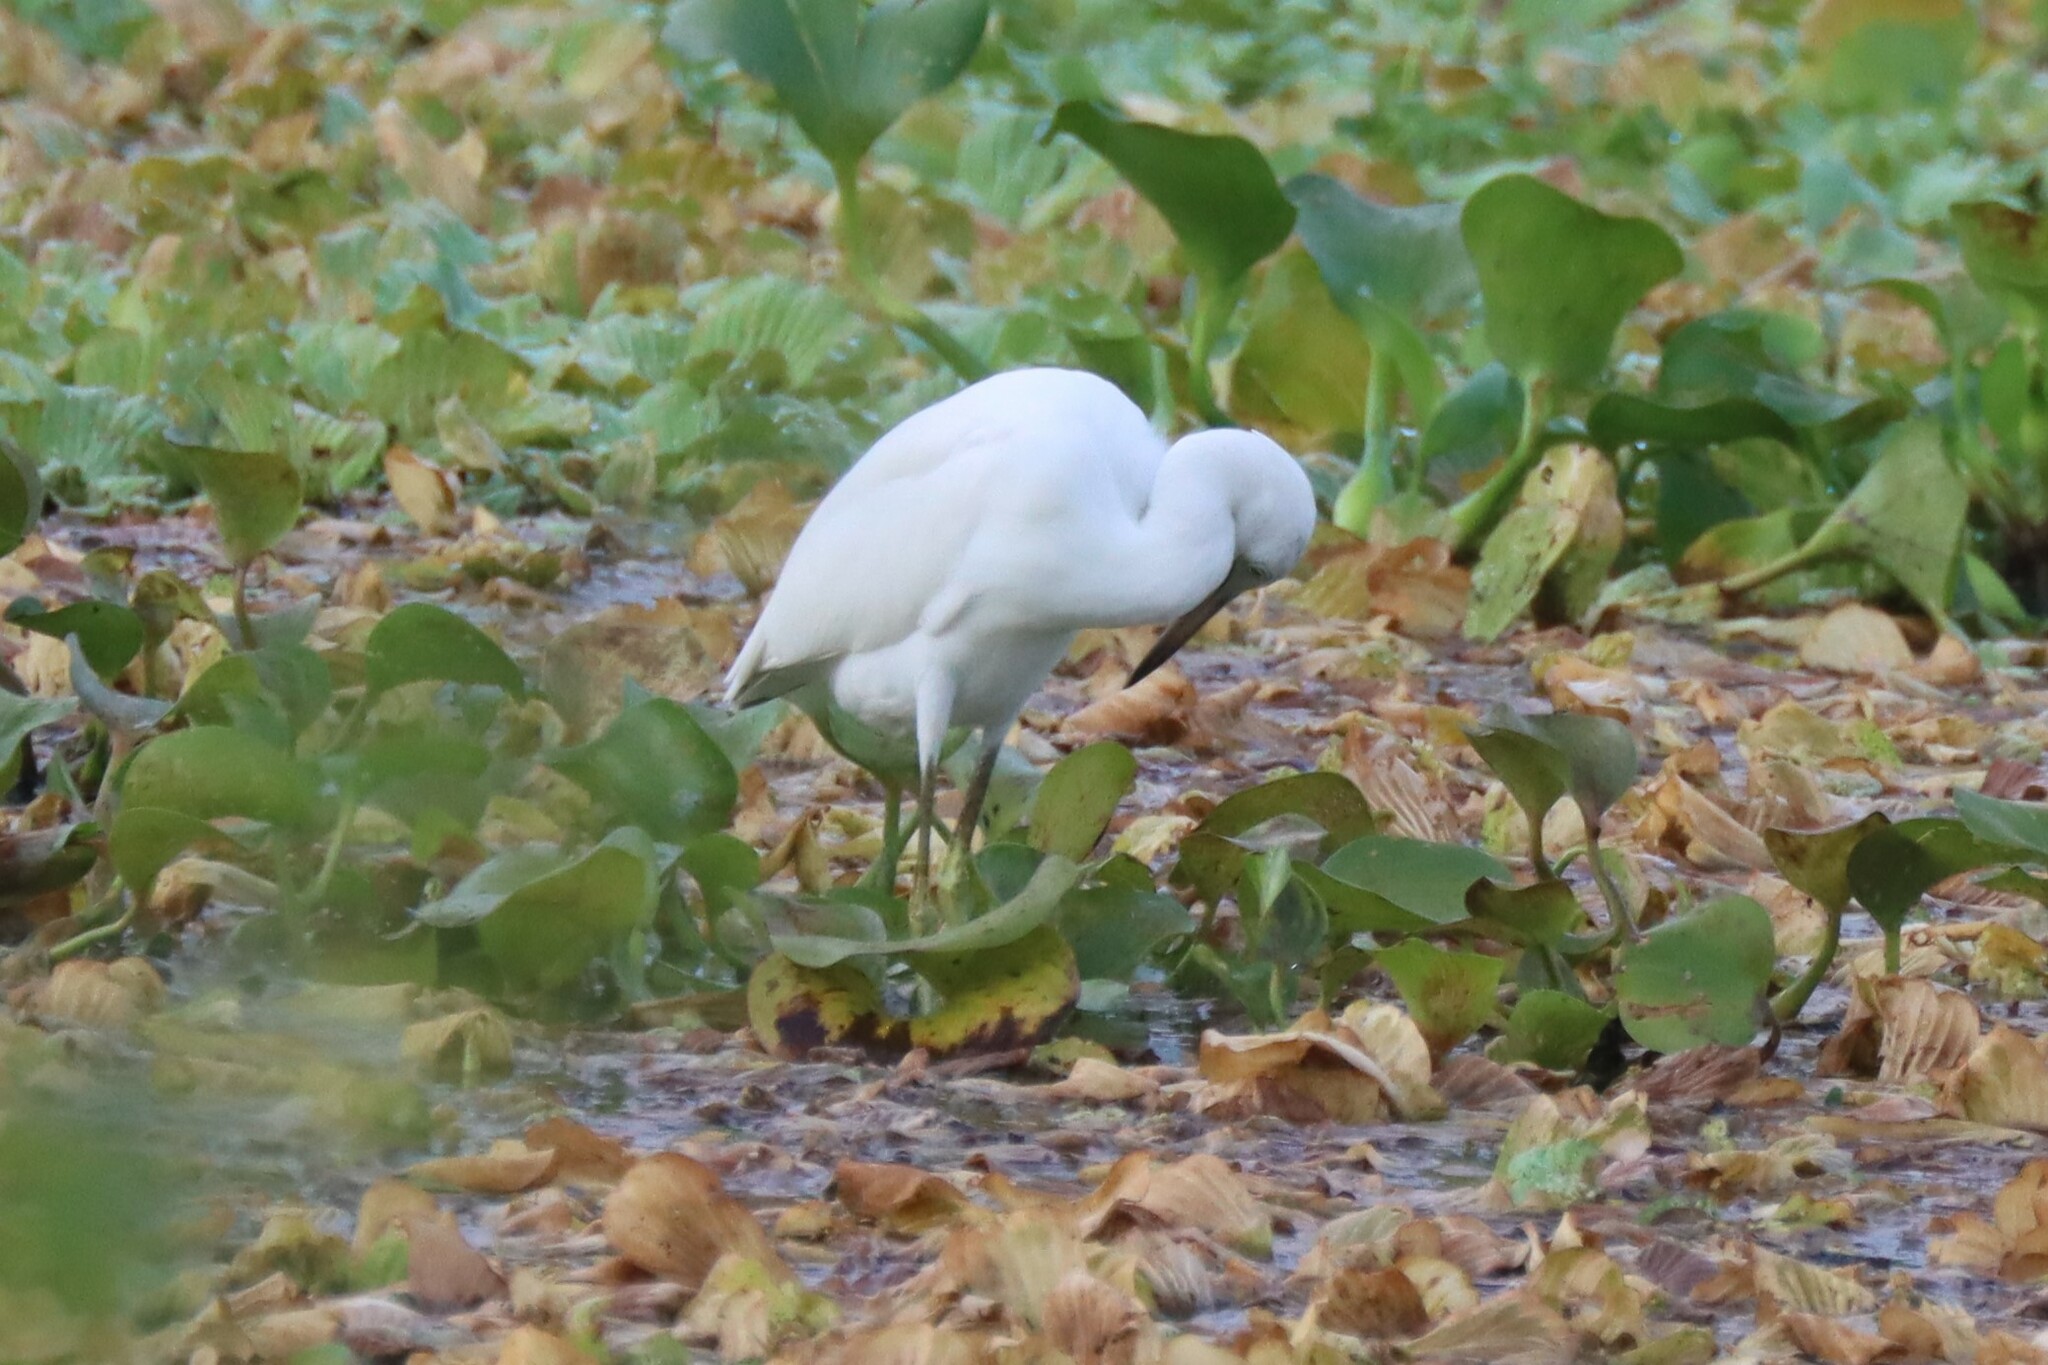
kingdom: Animalia
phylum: Chordata
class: Aves
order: Pelecaniformes
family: Ardeidae
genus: Egretta
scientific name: Egretta caerulea
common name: Little blue heron
